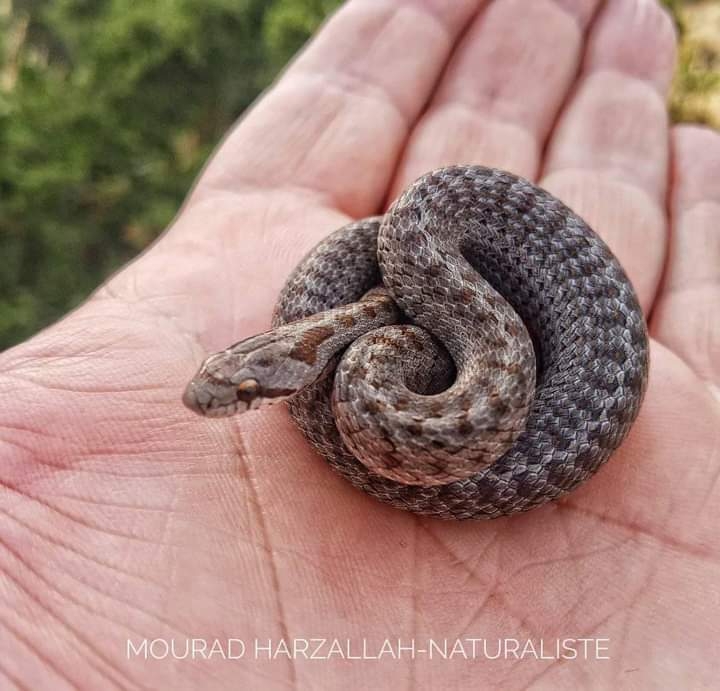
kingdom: Animalia
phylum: Chordata
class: Squamata
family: Colubridae
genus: Coronella
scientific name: Coronella girondica
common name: Southern smooth snake
